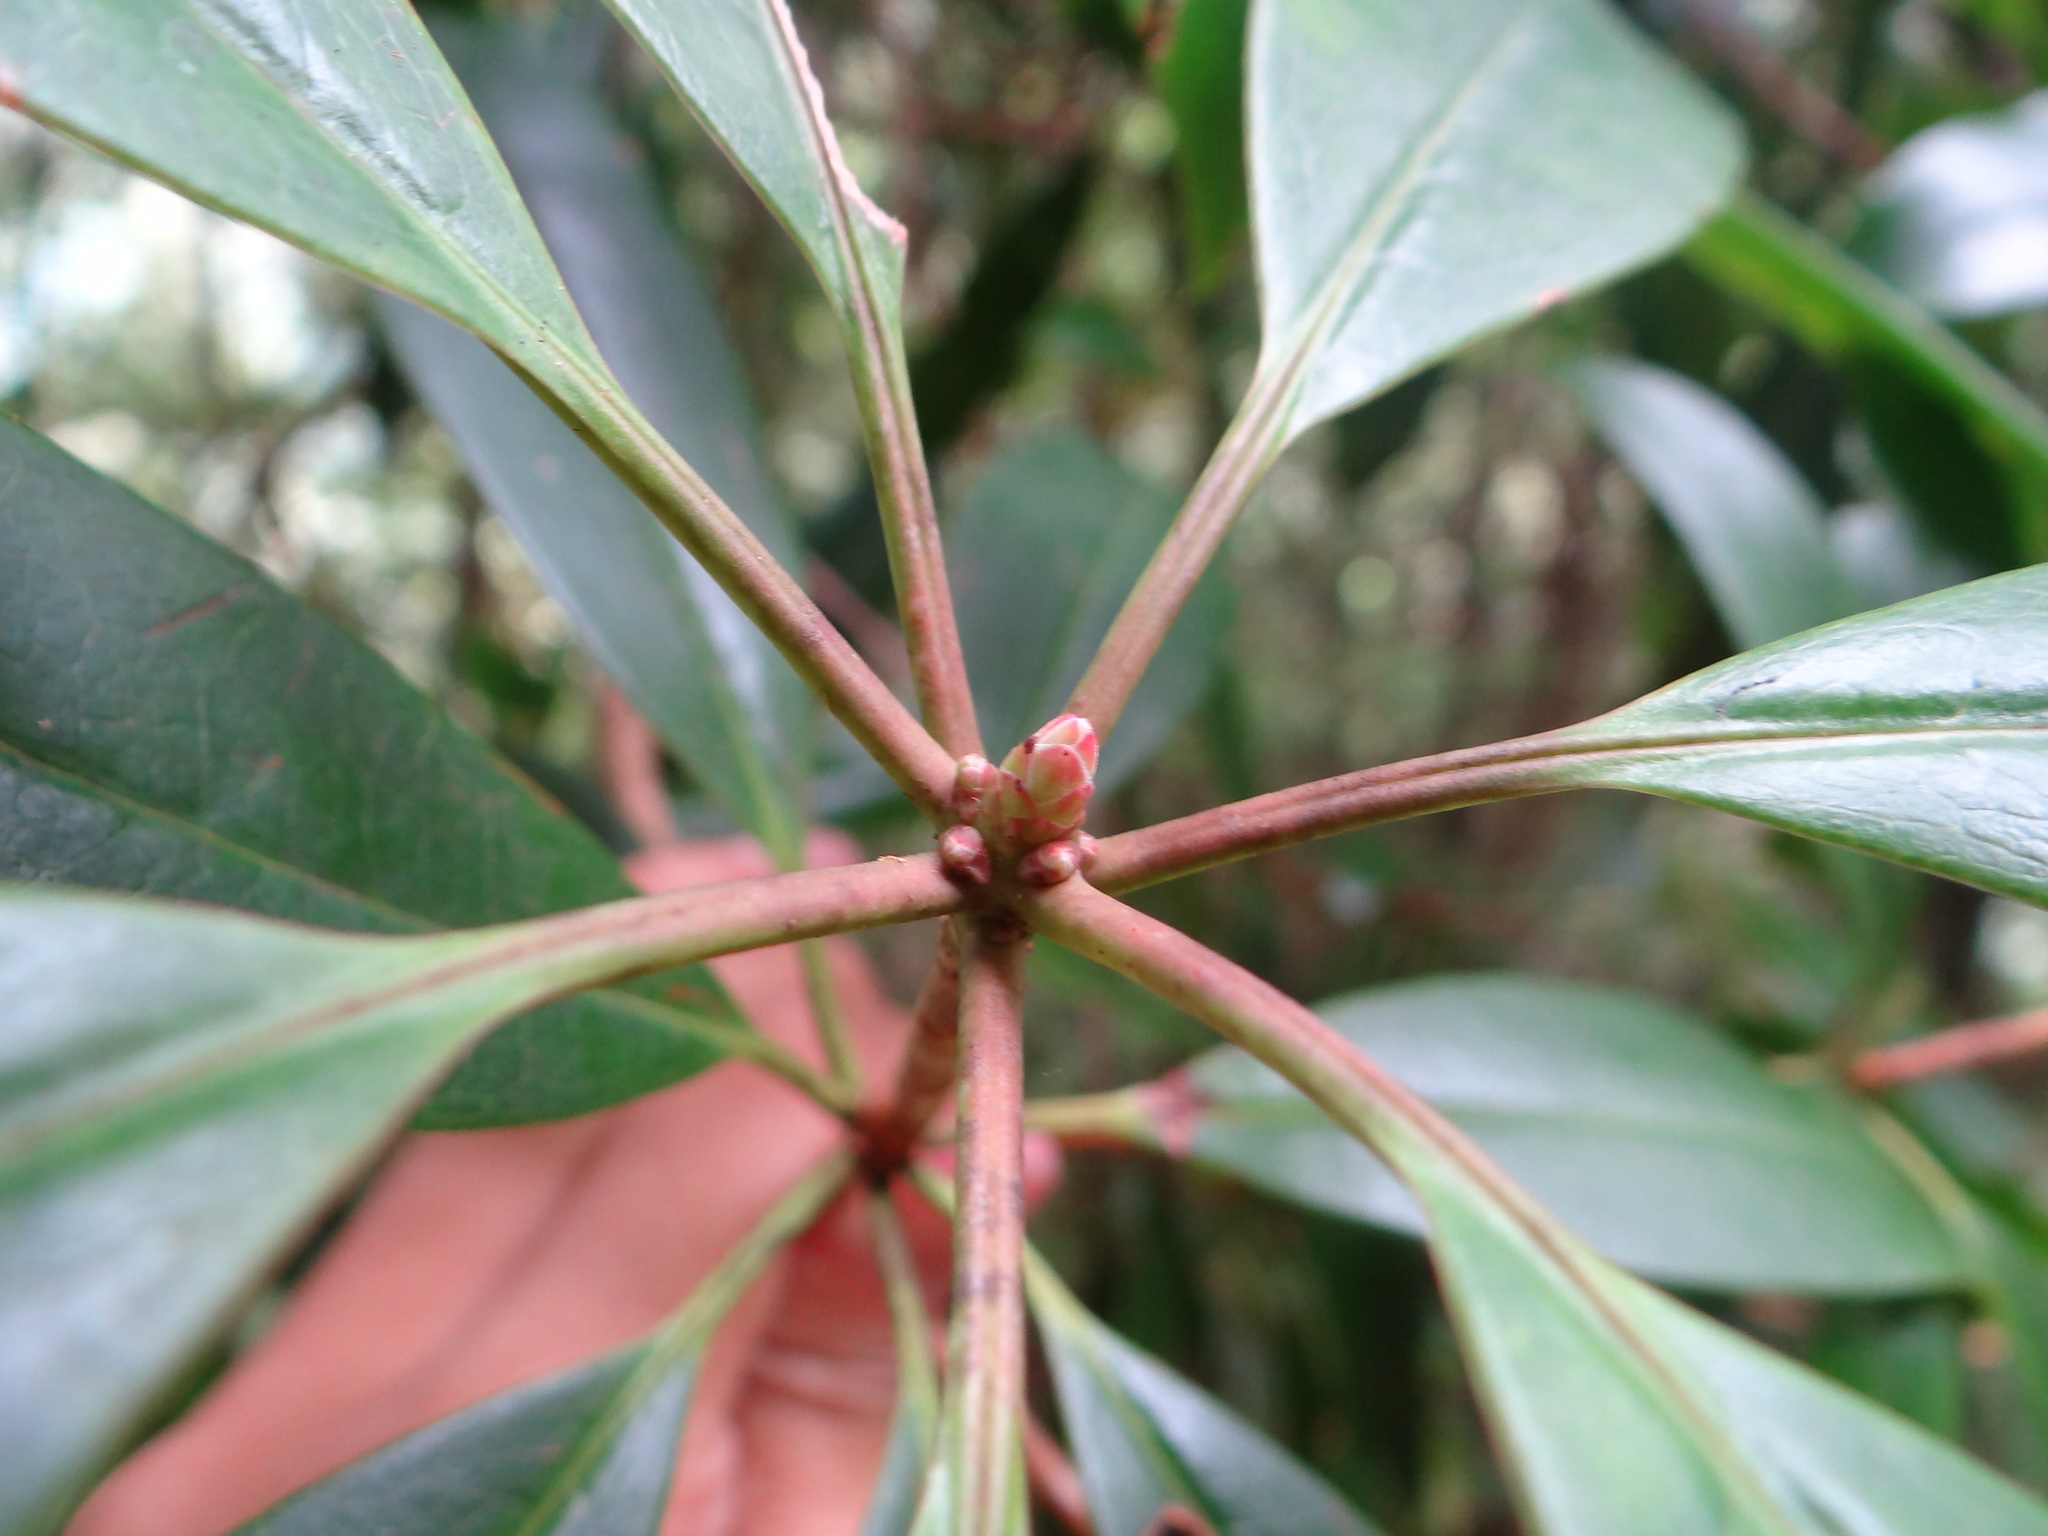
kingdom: Plantae
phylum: Tracheophyta
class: Magnoliopsida
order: Ericales
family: Ericaceae
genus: Rhododendron
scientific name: Rhododendron latoucheae
